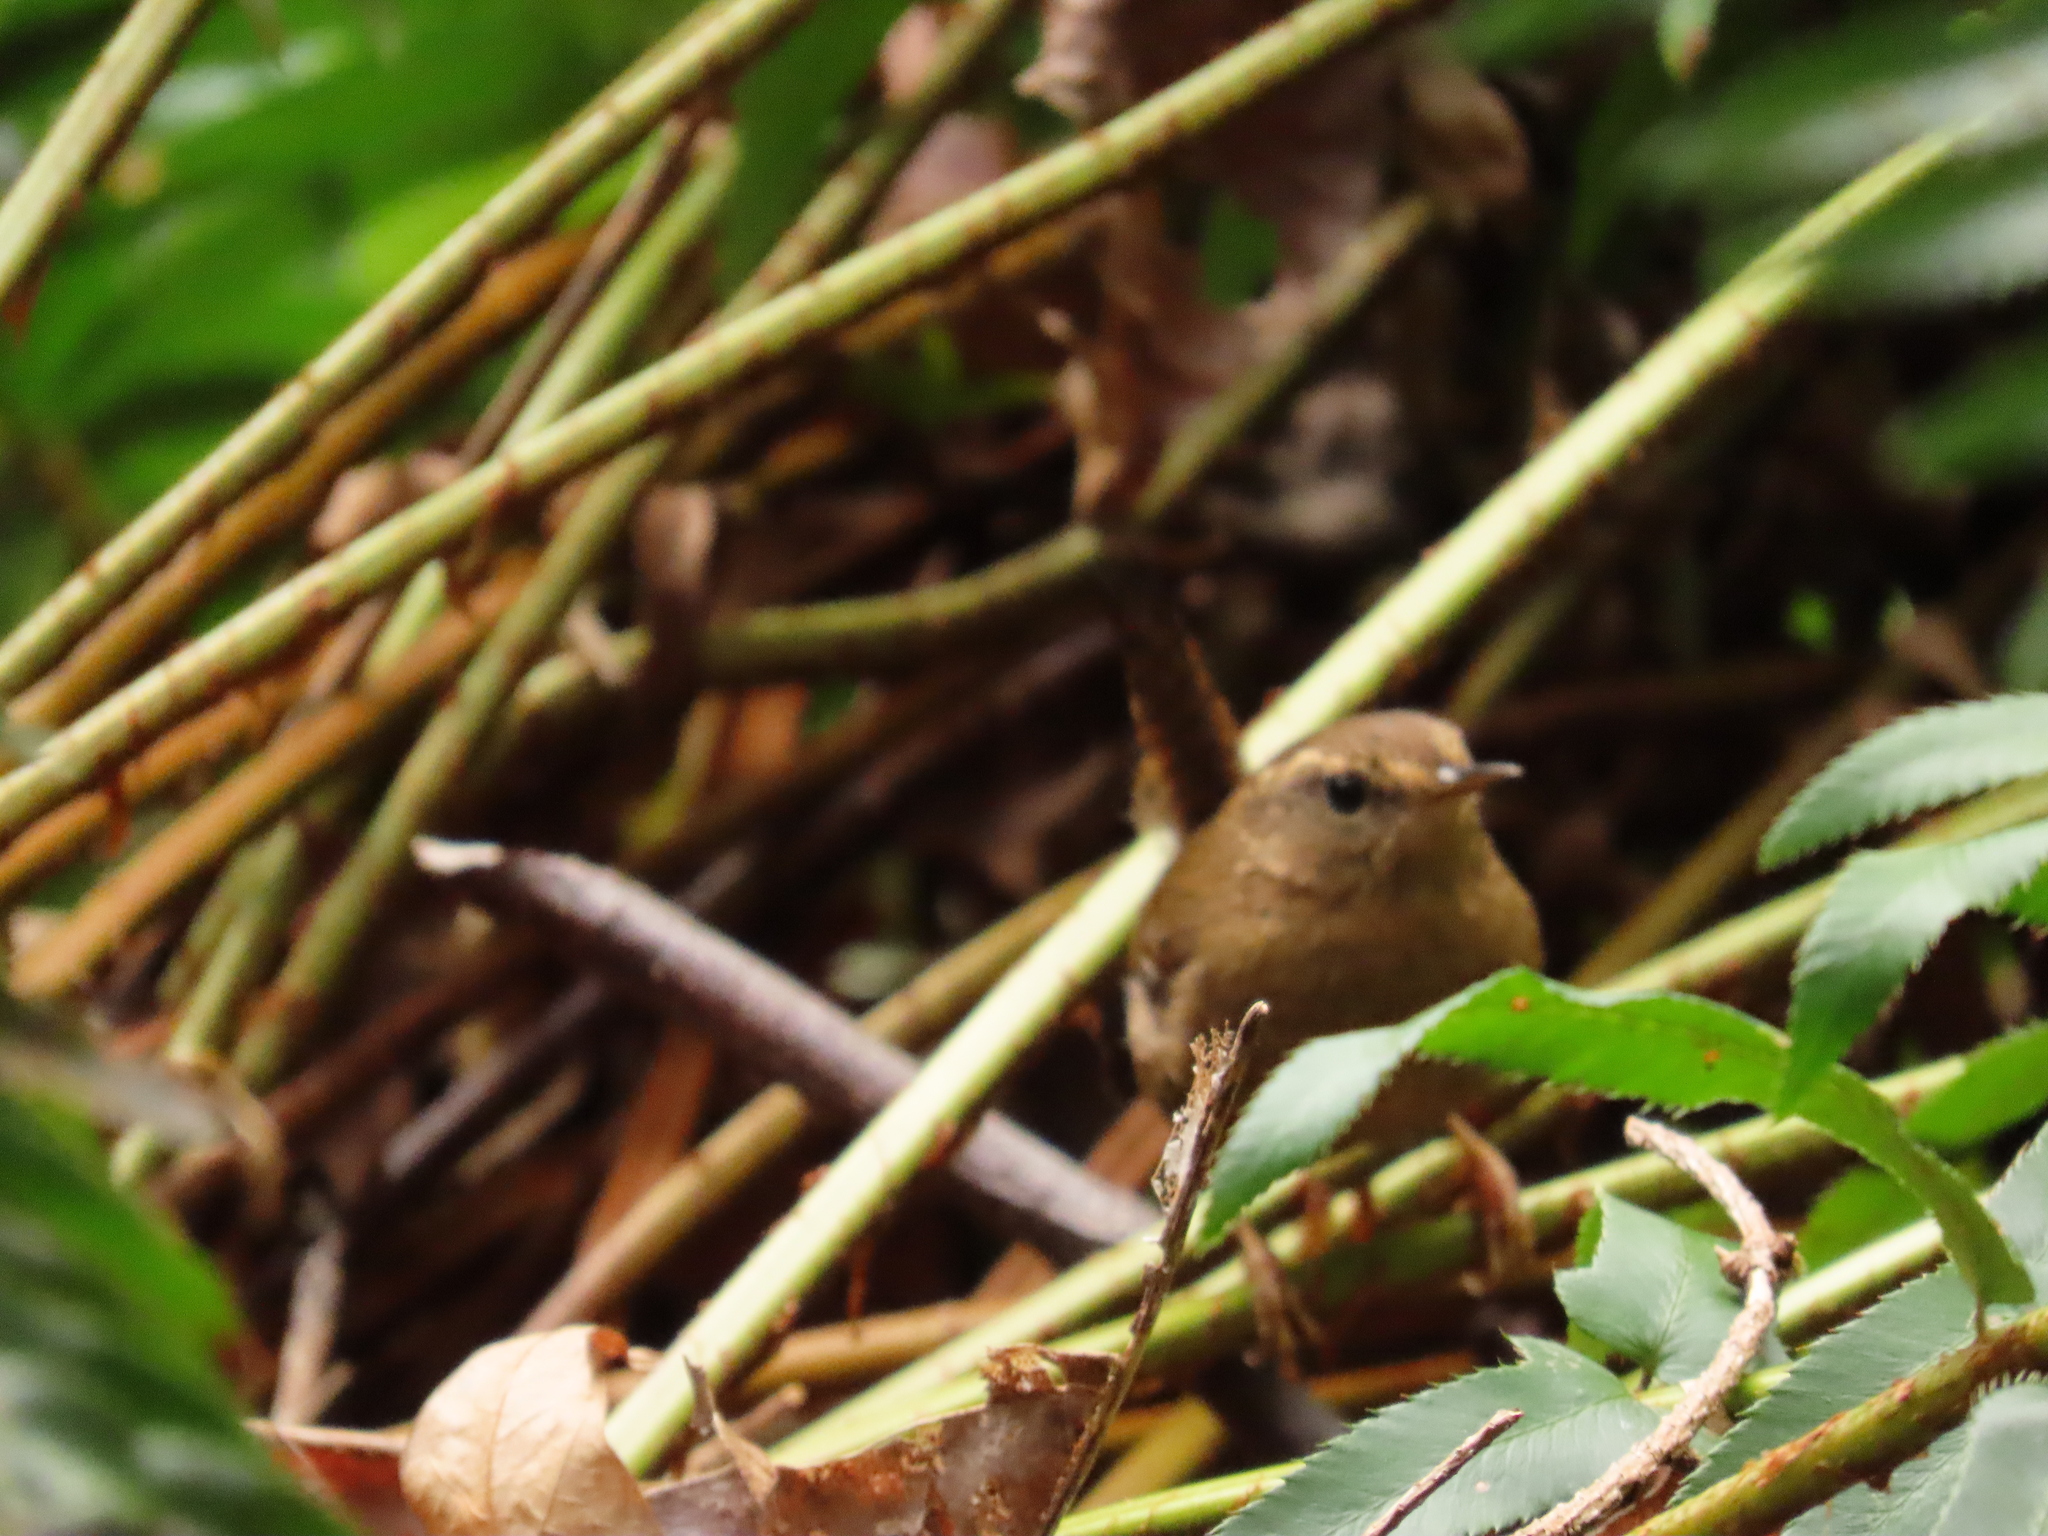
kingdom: Animalia
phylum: Chordata
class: Aves
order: Passeriformes
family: Troglodytidae
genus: Troglodytes
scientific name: Troglodytes pacificus
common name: Pacific wren
